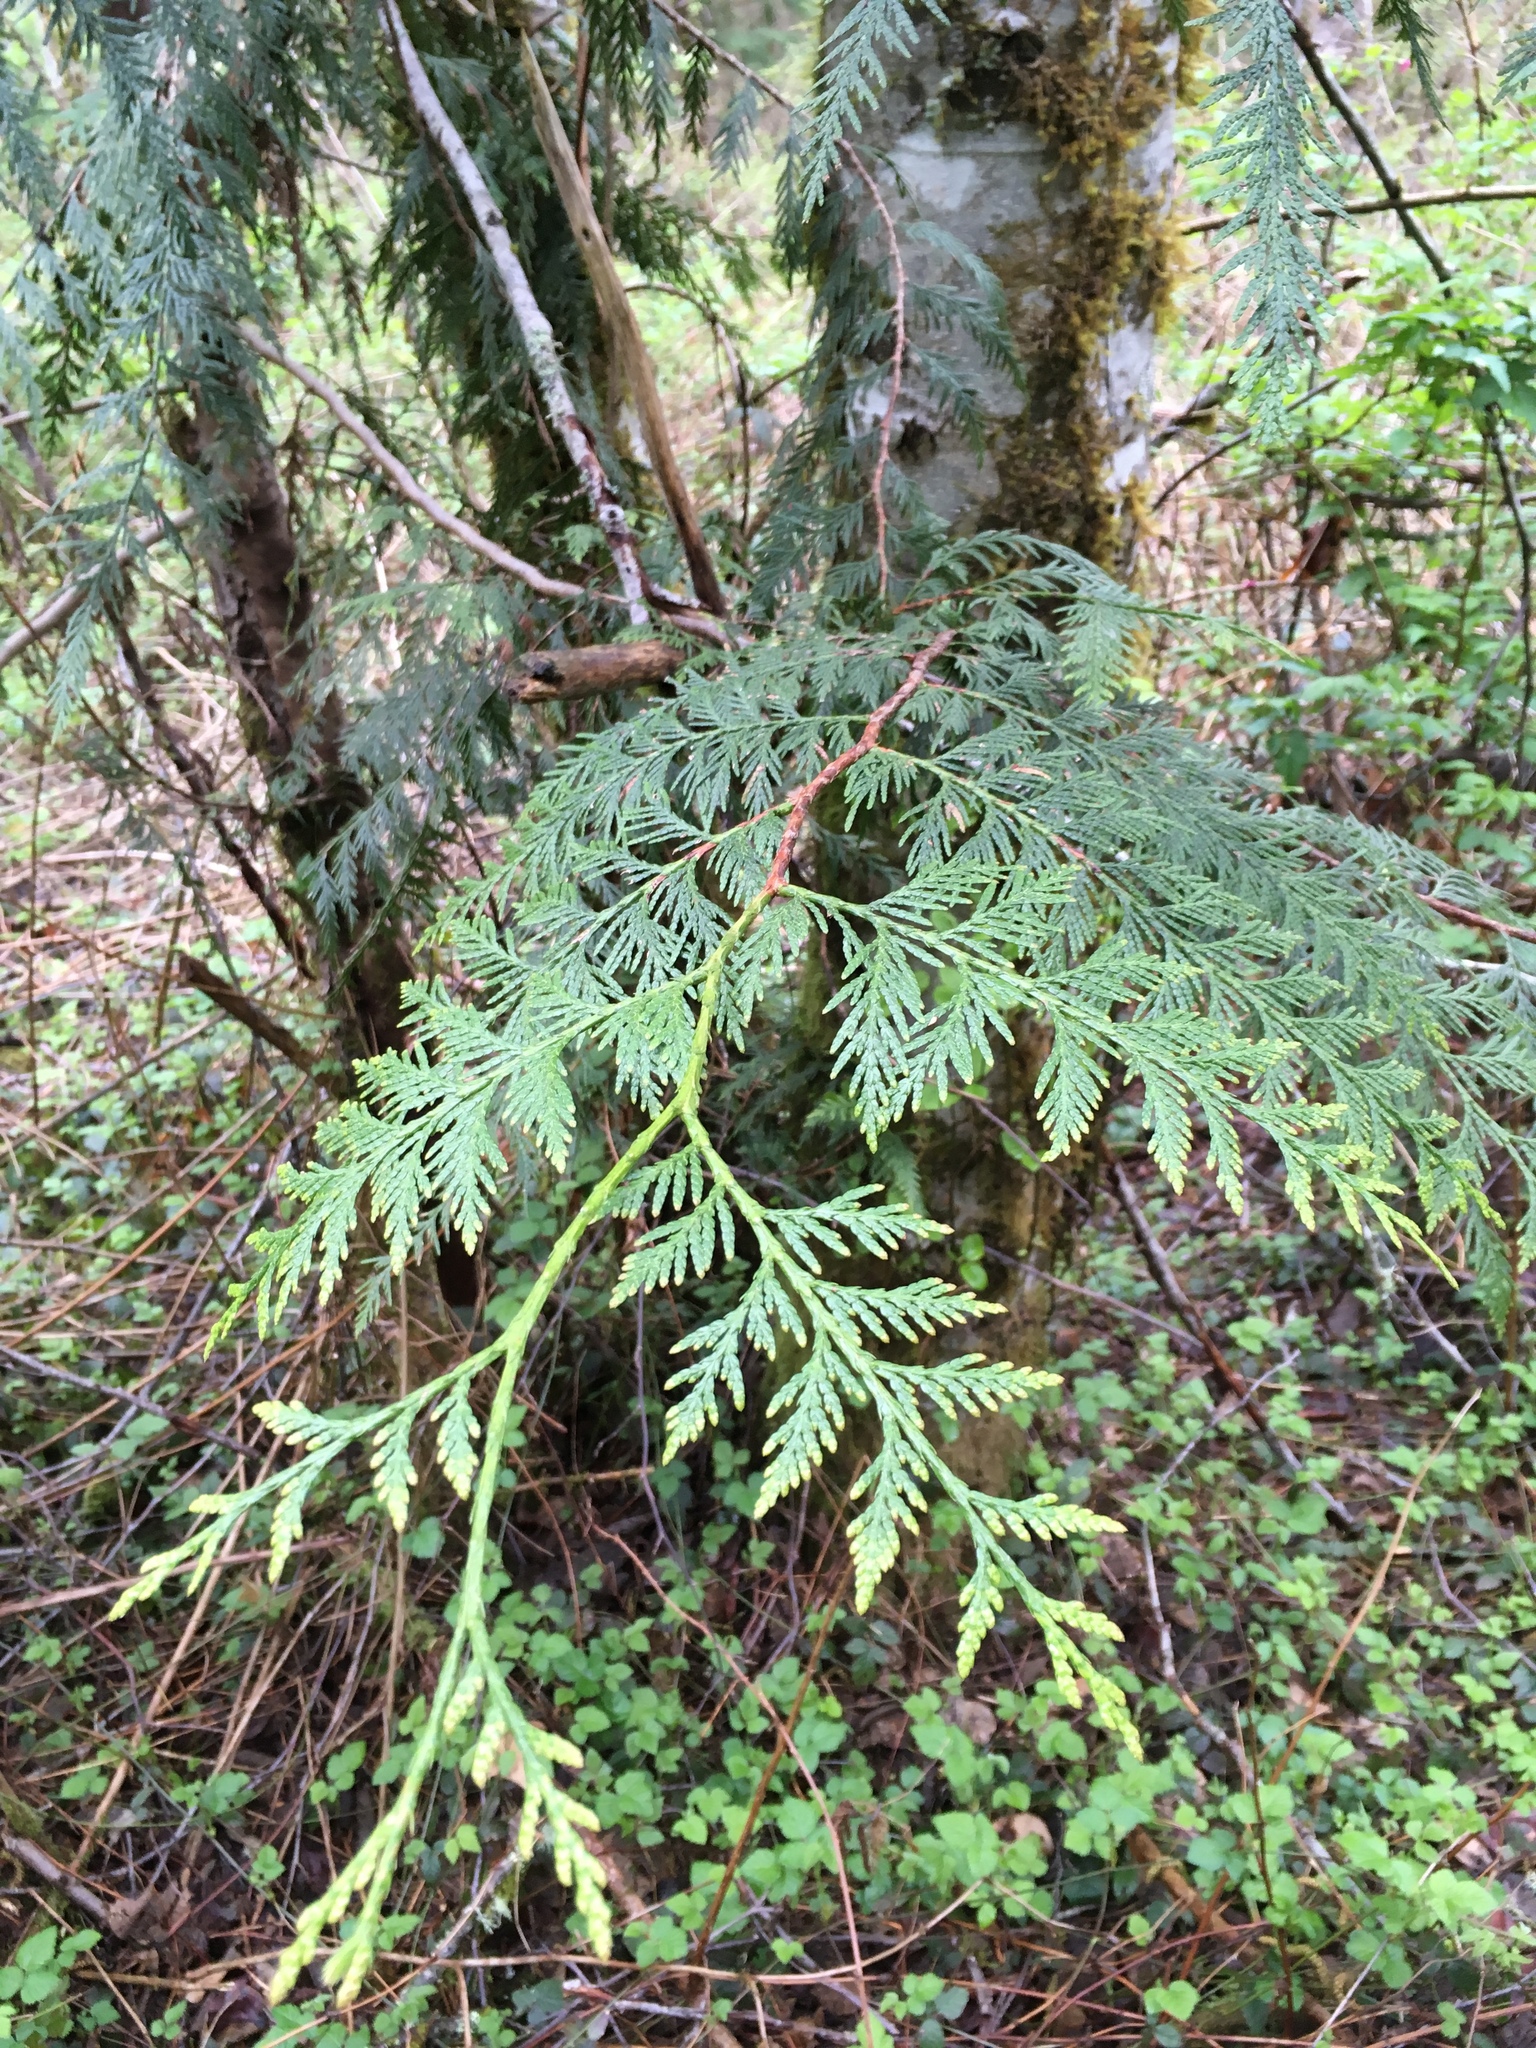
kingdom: Plantae
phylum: Tracheophyta
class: Pinopsida
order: Pinales
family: Cupressaceae
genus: Thuja
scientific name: Thuja plicata
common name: Western red-cedar
